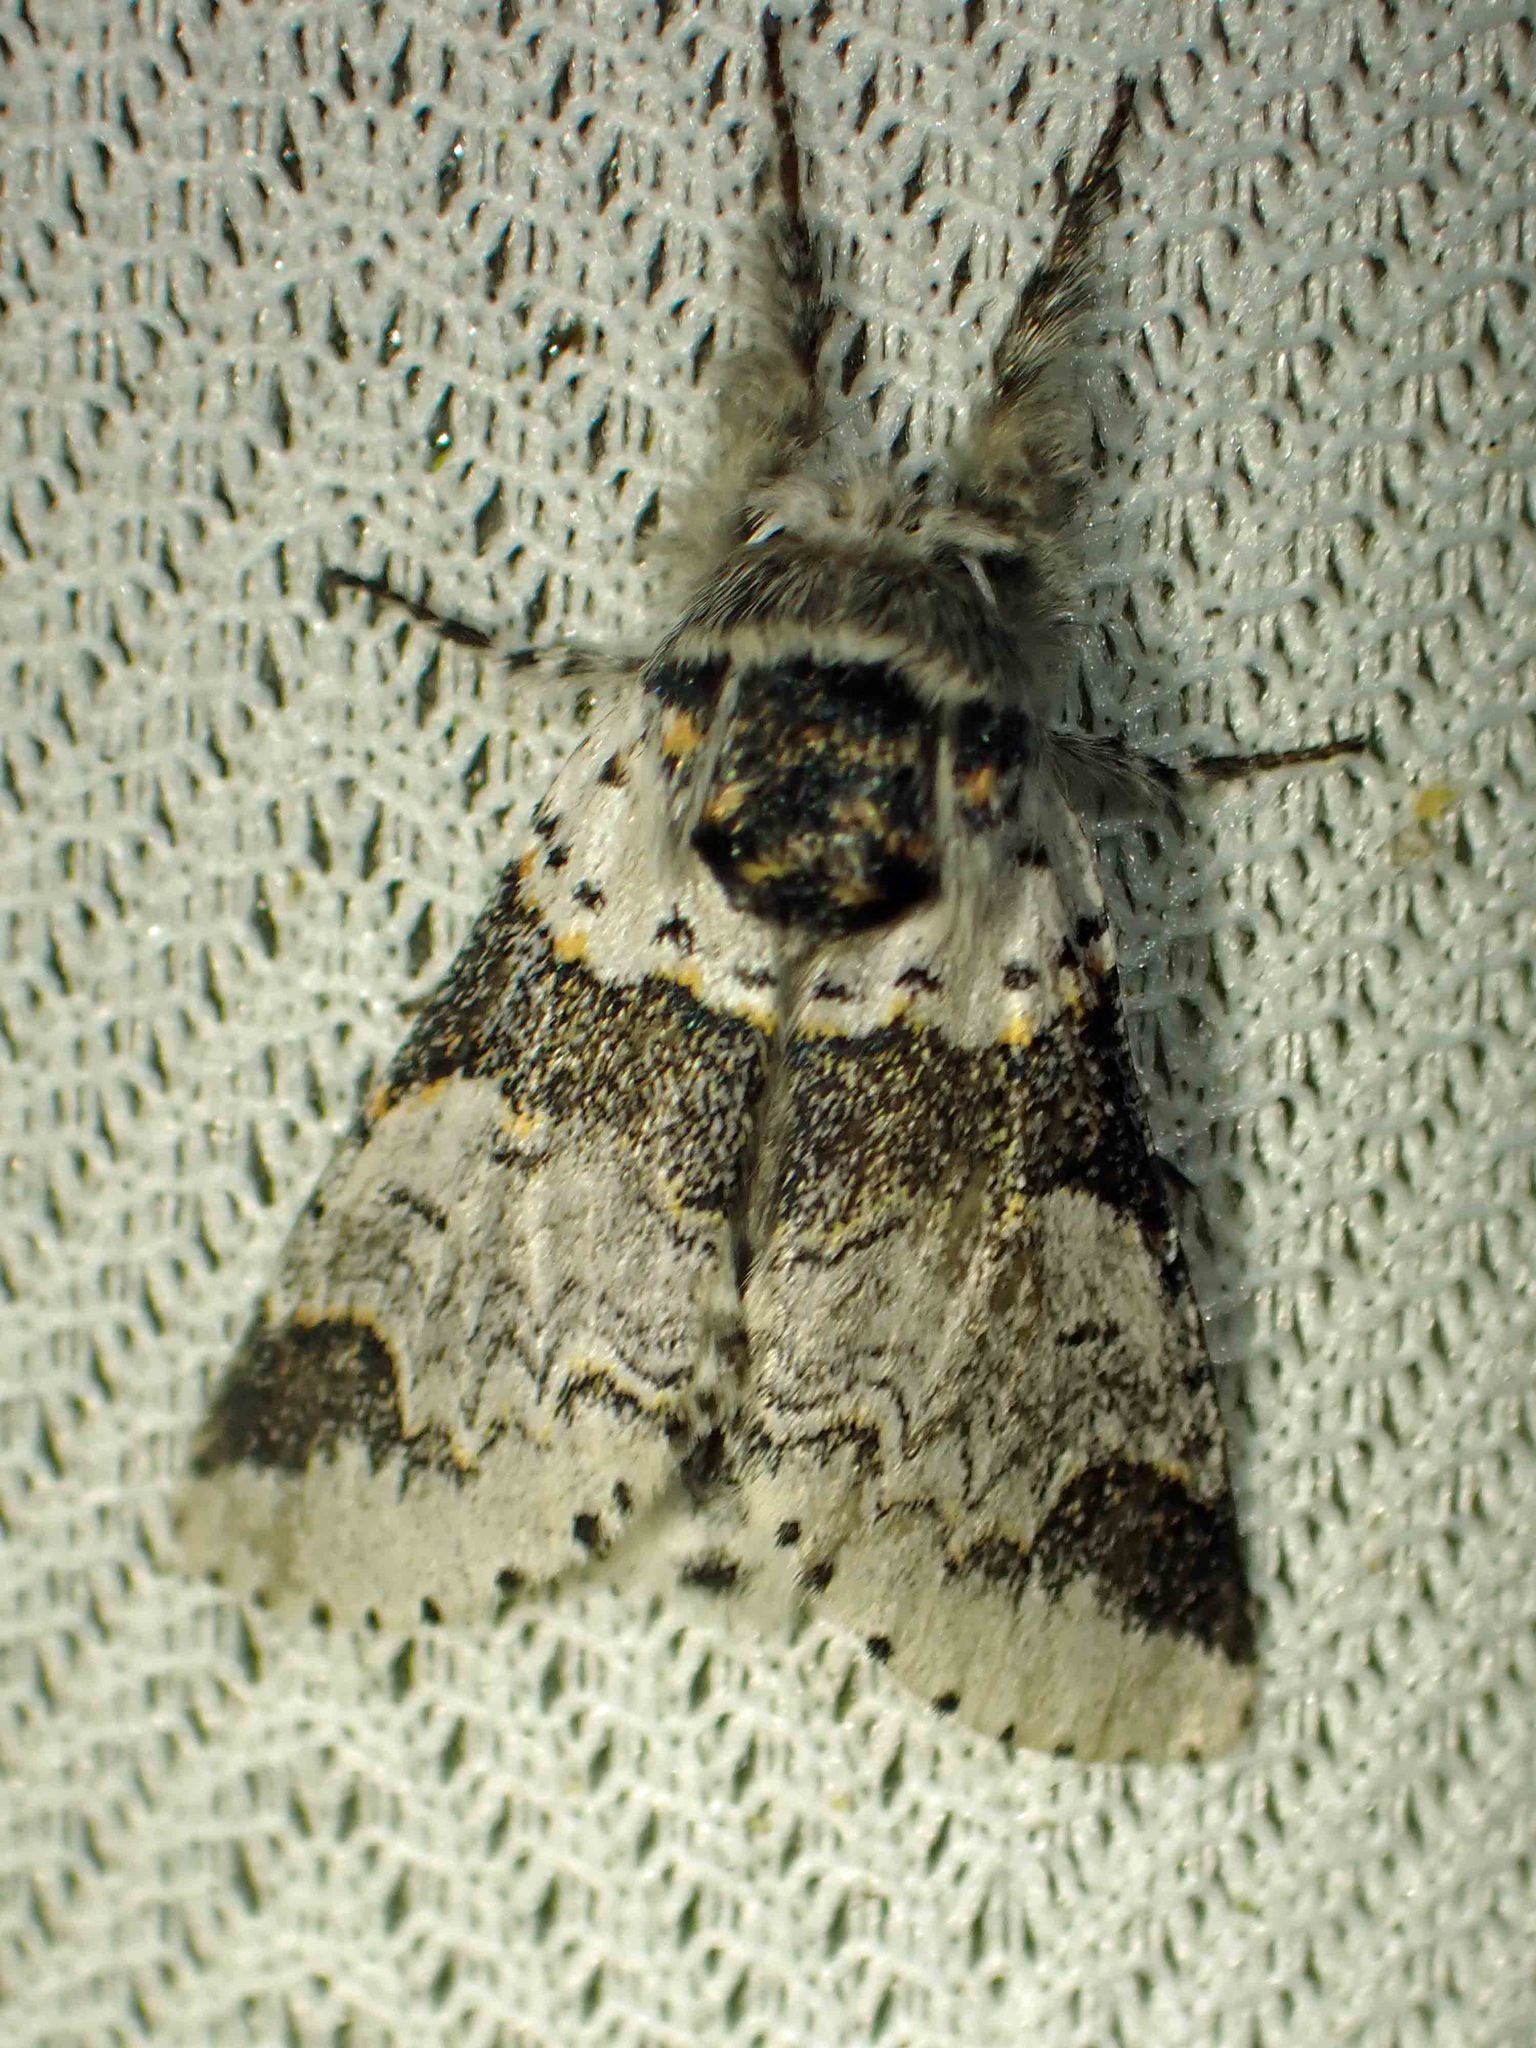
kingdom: Animalia
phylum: Arthropoda
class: Insecta
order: Lepidoptera
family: Notodontidae
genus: Furcula
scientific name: Furcula occidentalis
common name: Western furcula moth
